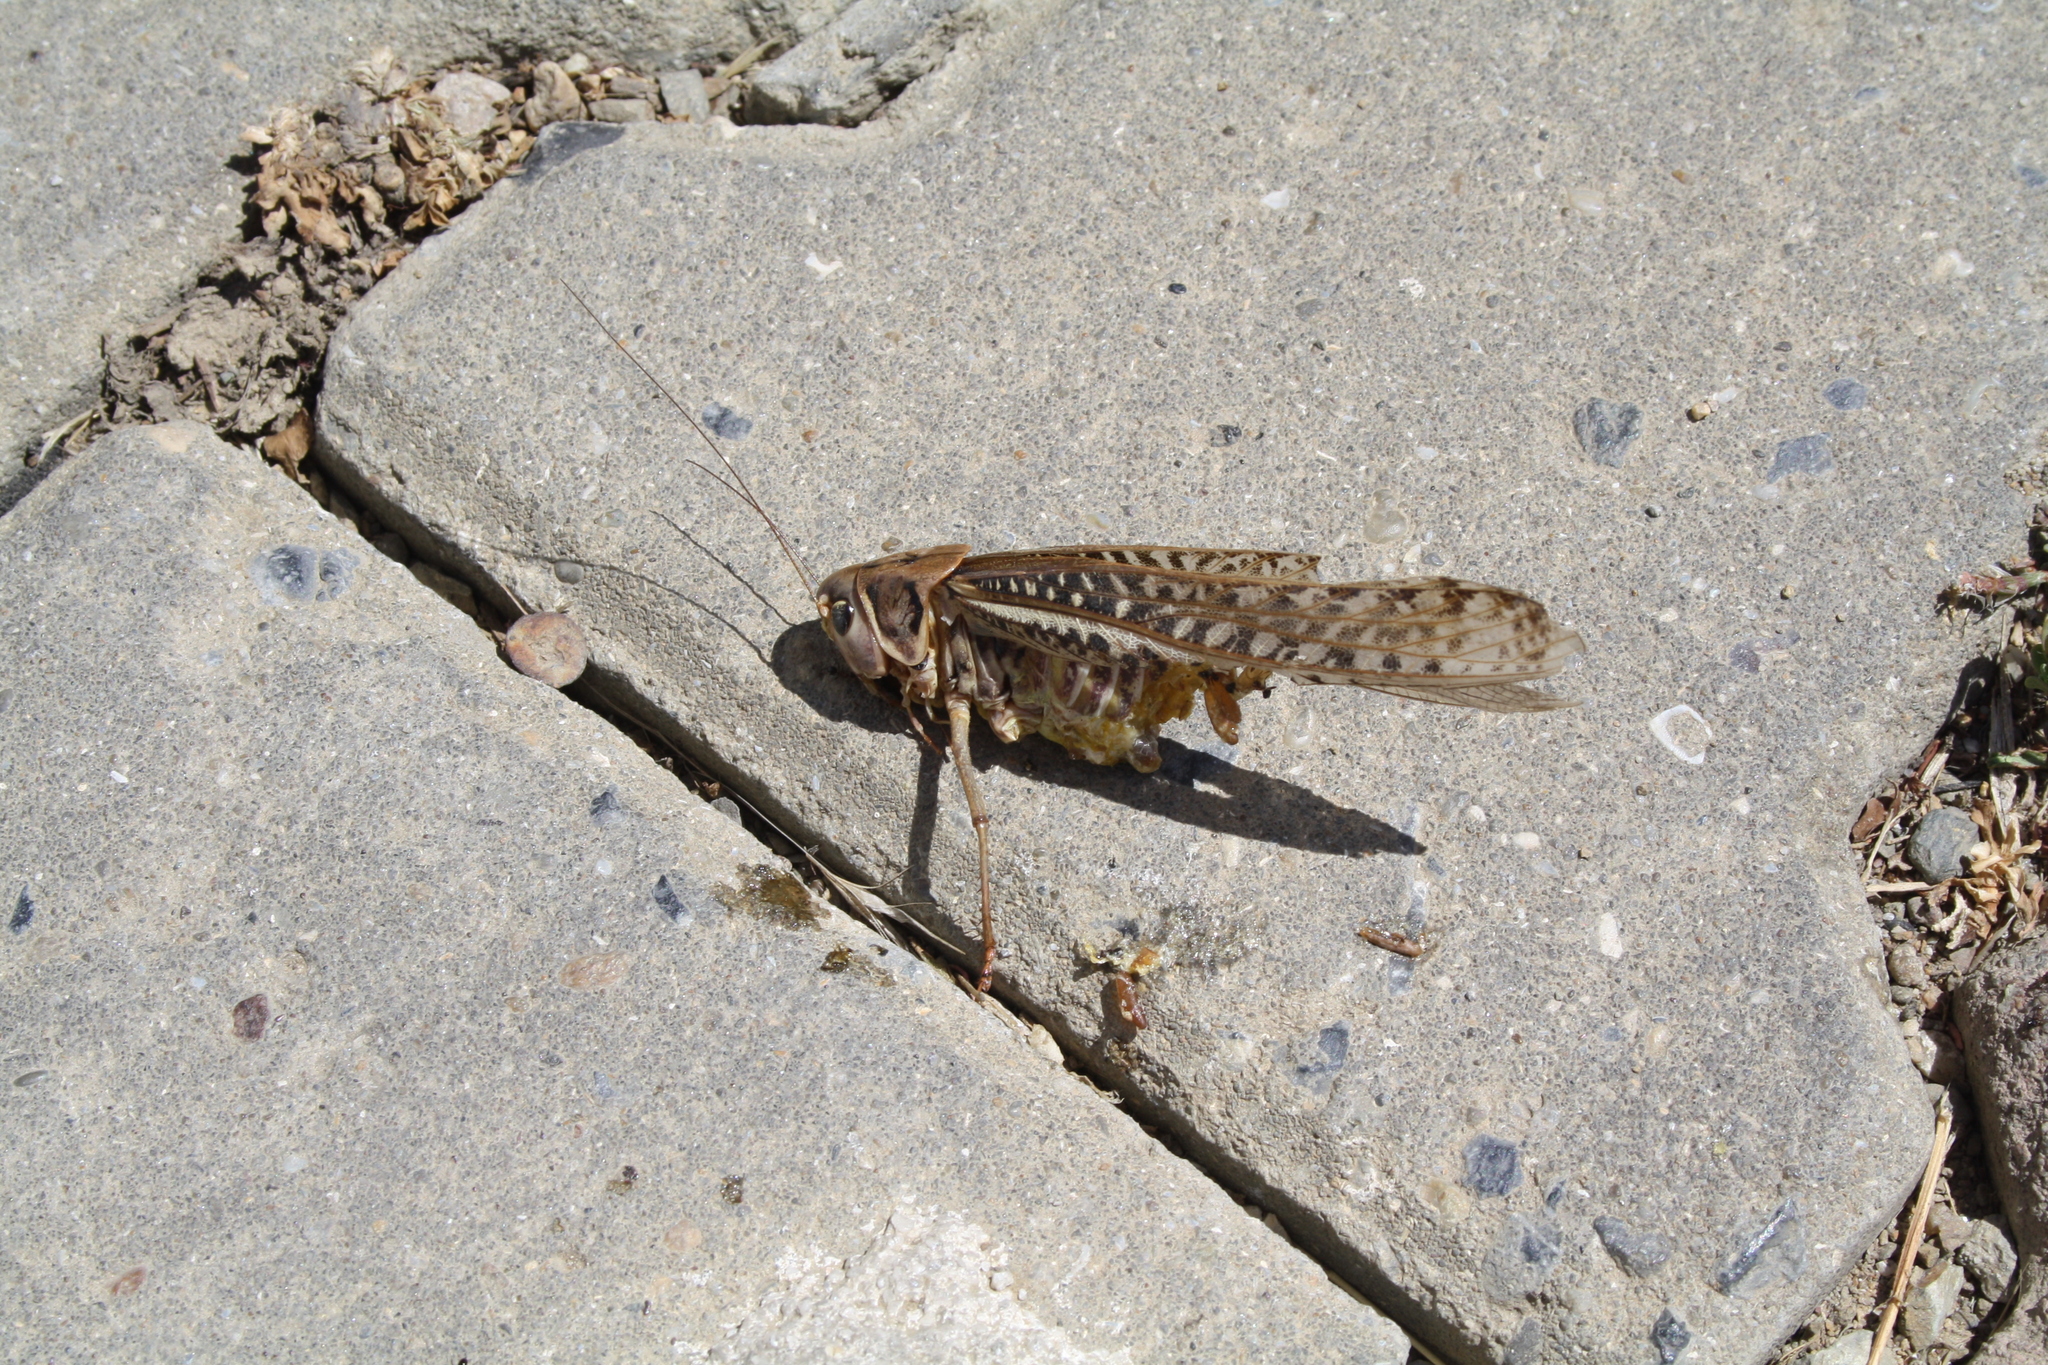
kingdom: Animalia
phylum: Arthropoda
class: Insecta
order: Orthoptera
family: Tettigoniidae
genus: Decticus
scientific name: Decticus albifrons
